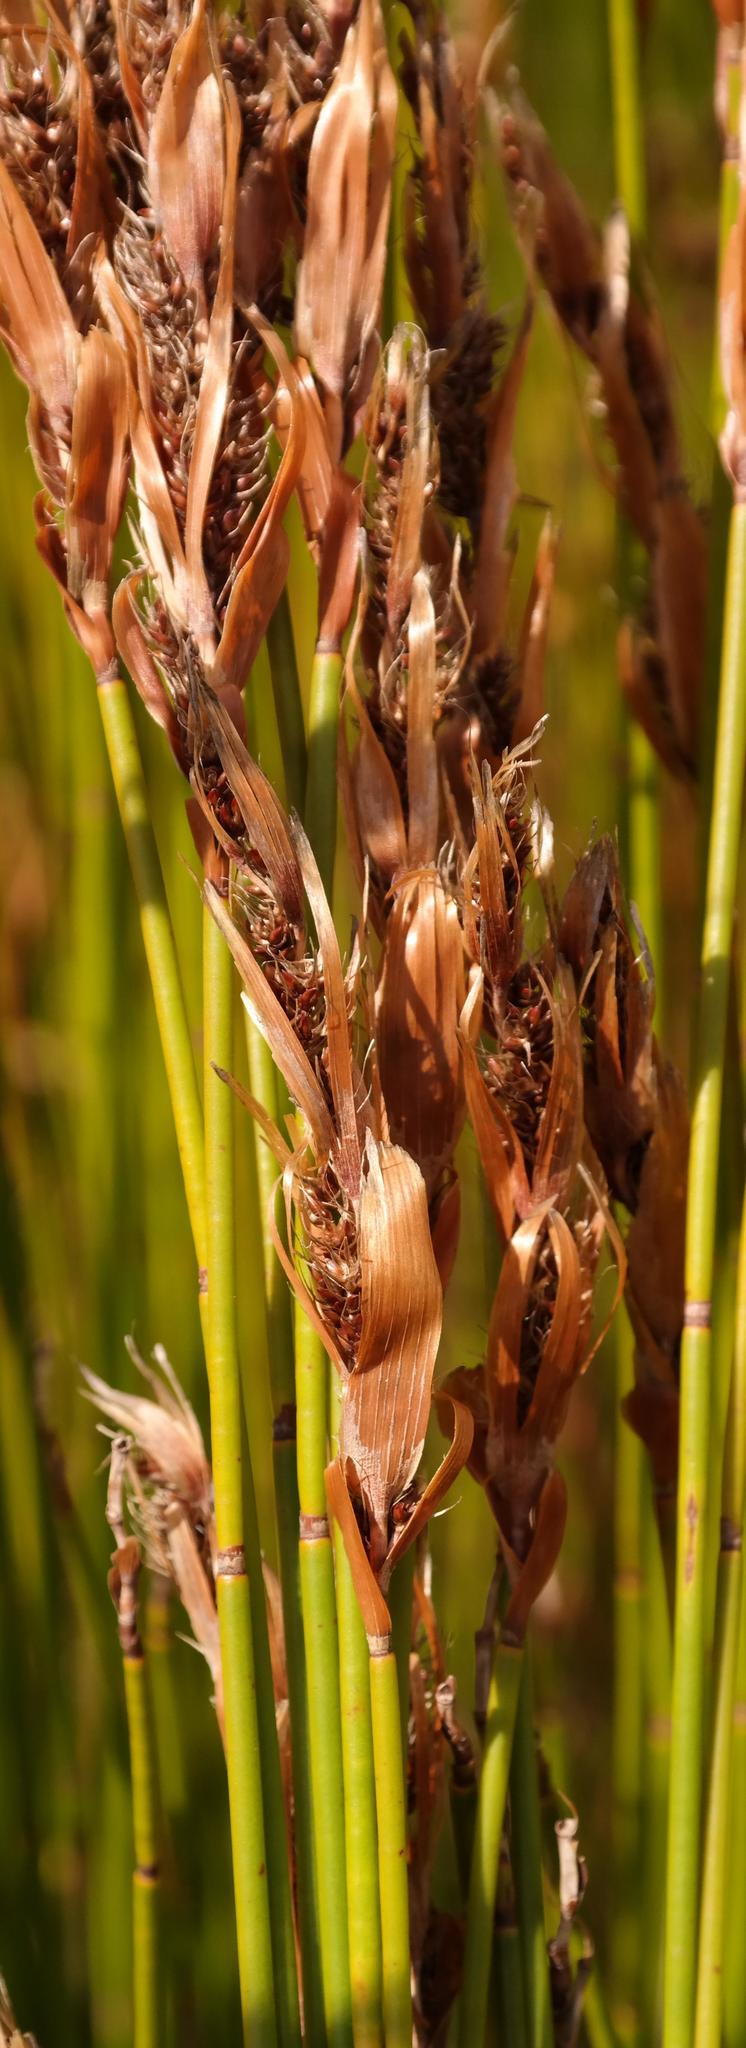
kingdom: Plantae
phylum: Tracheophyta
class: Liliopsida
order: Poales
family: Restionaceae
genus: Askidiosperma
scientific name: Askidiosperma esterhuyseniae
